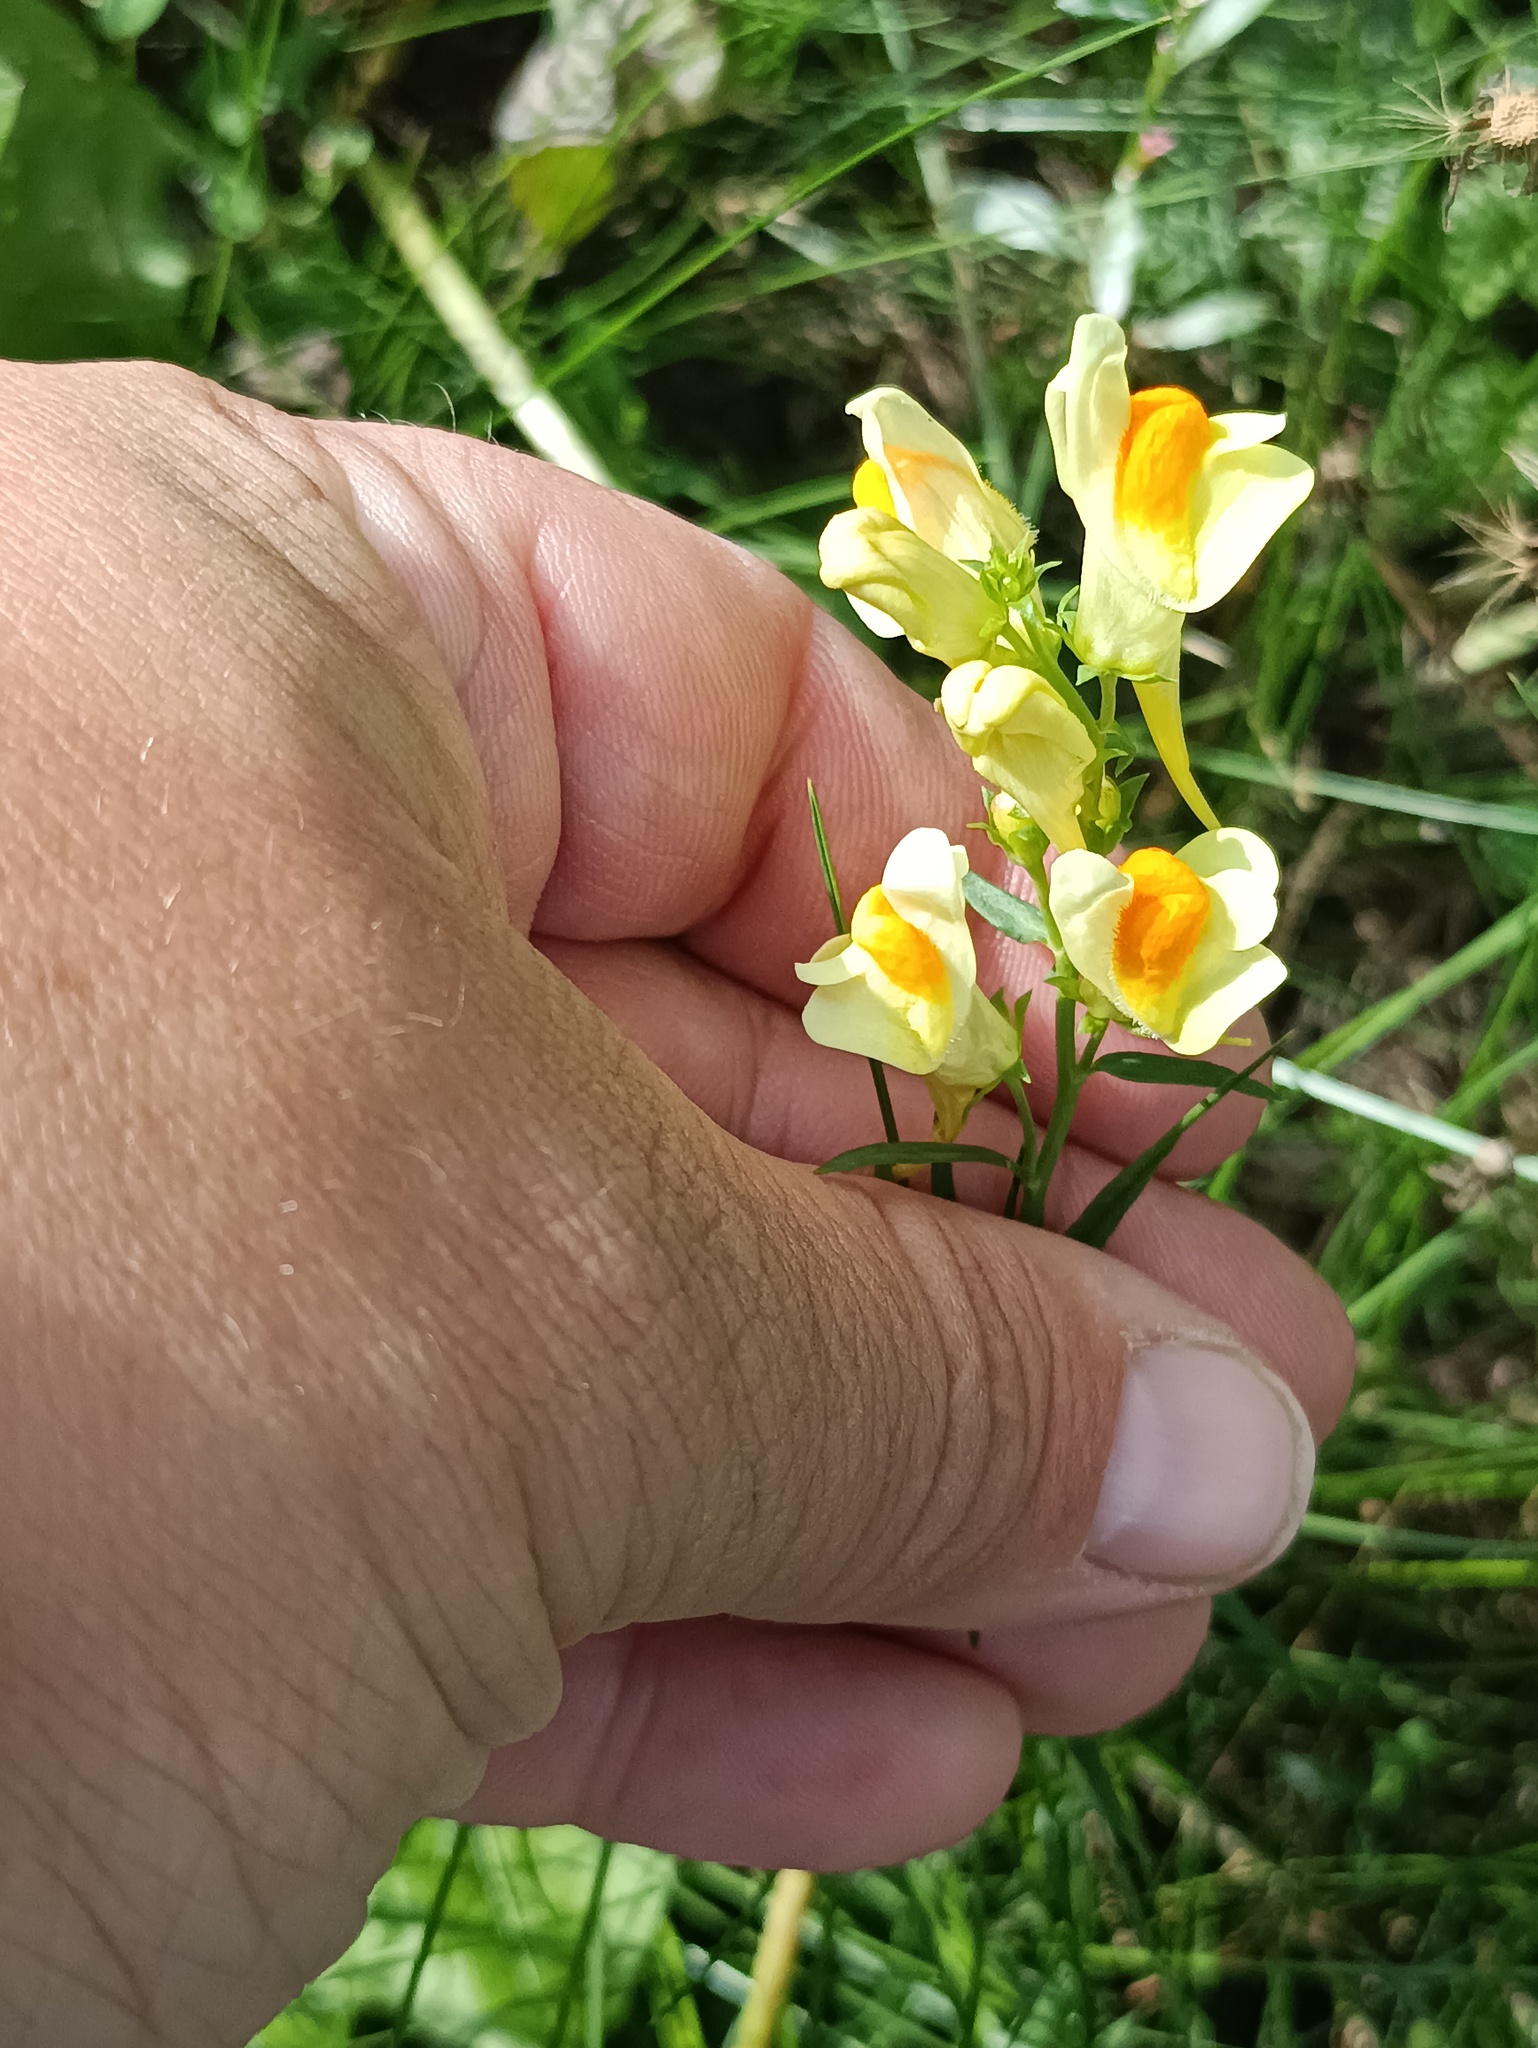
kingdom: Plantae
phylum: Tracheophyta
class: Magnoliopsida
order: Lamiales
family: Plantaginaceae
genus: Linaria
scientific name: Linaria vulgaris
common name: Butter and eggs
